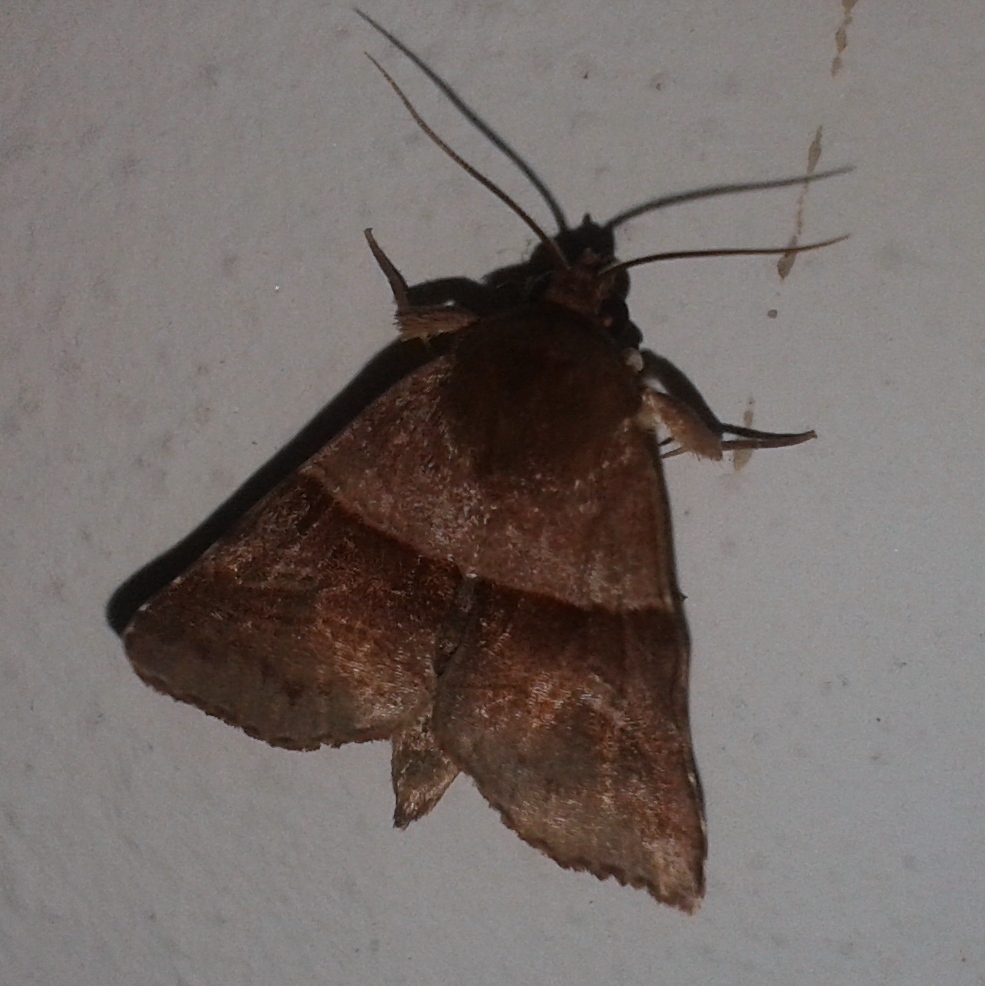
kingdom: Animalia
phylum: Arthropoda
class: Insecta
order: Lepidoptera
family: Noctuidae
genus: Phuphena
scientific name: Phuphena transversa
